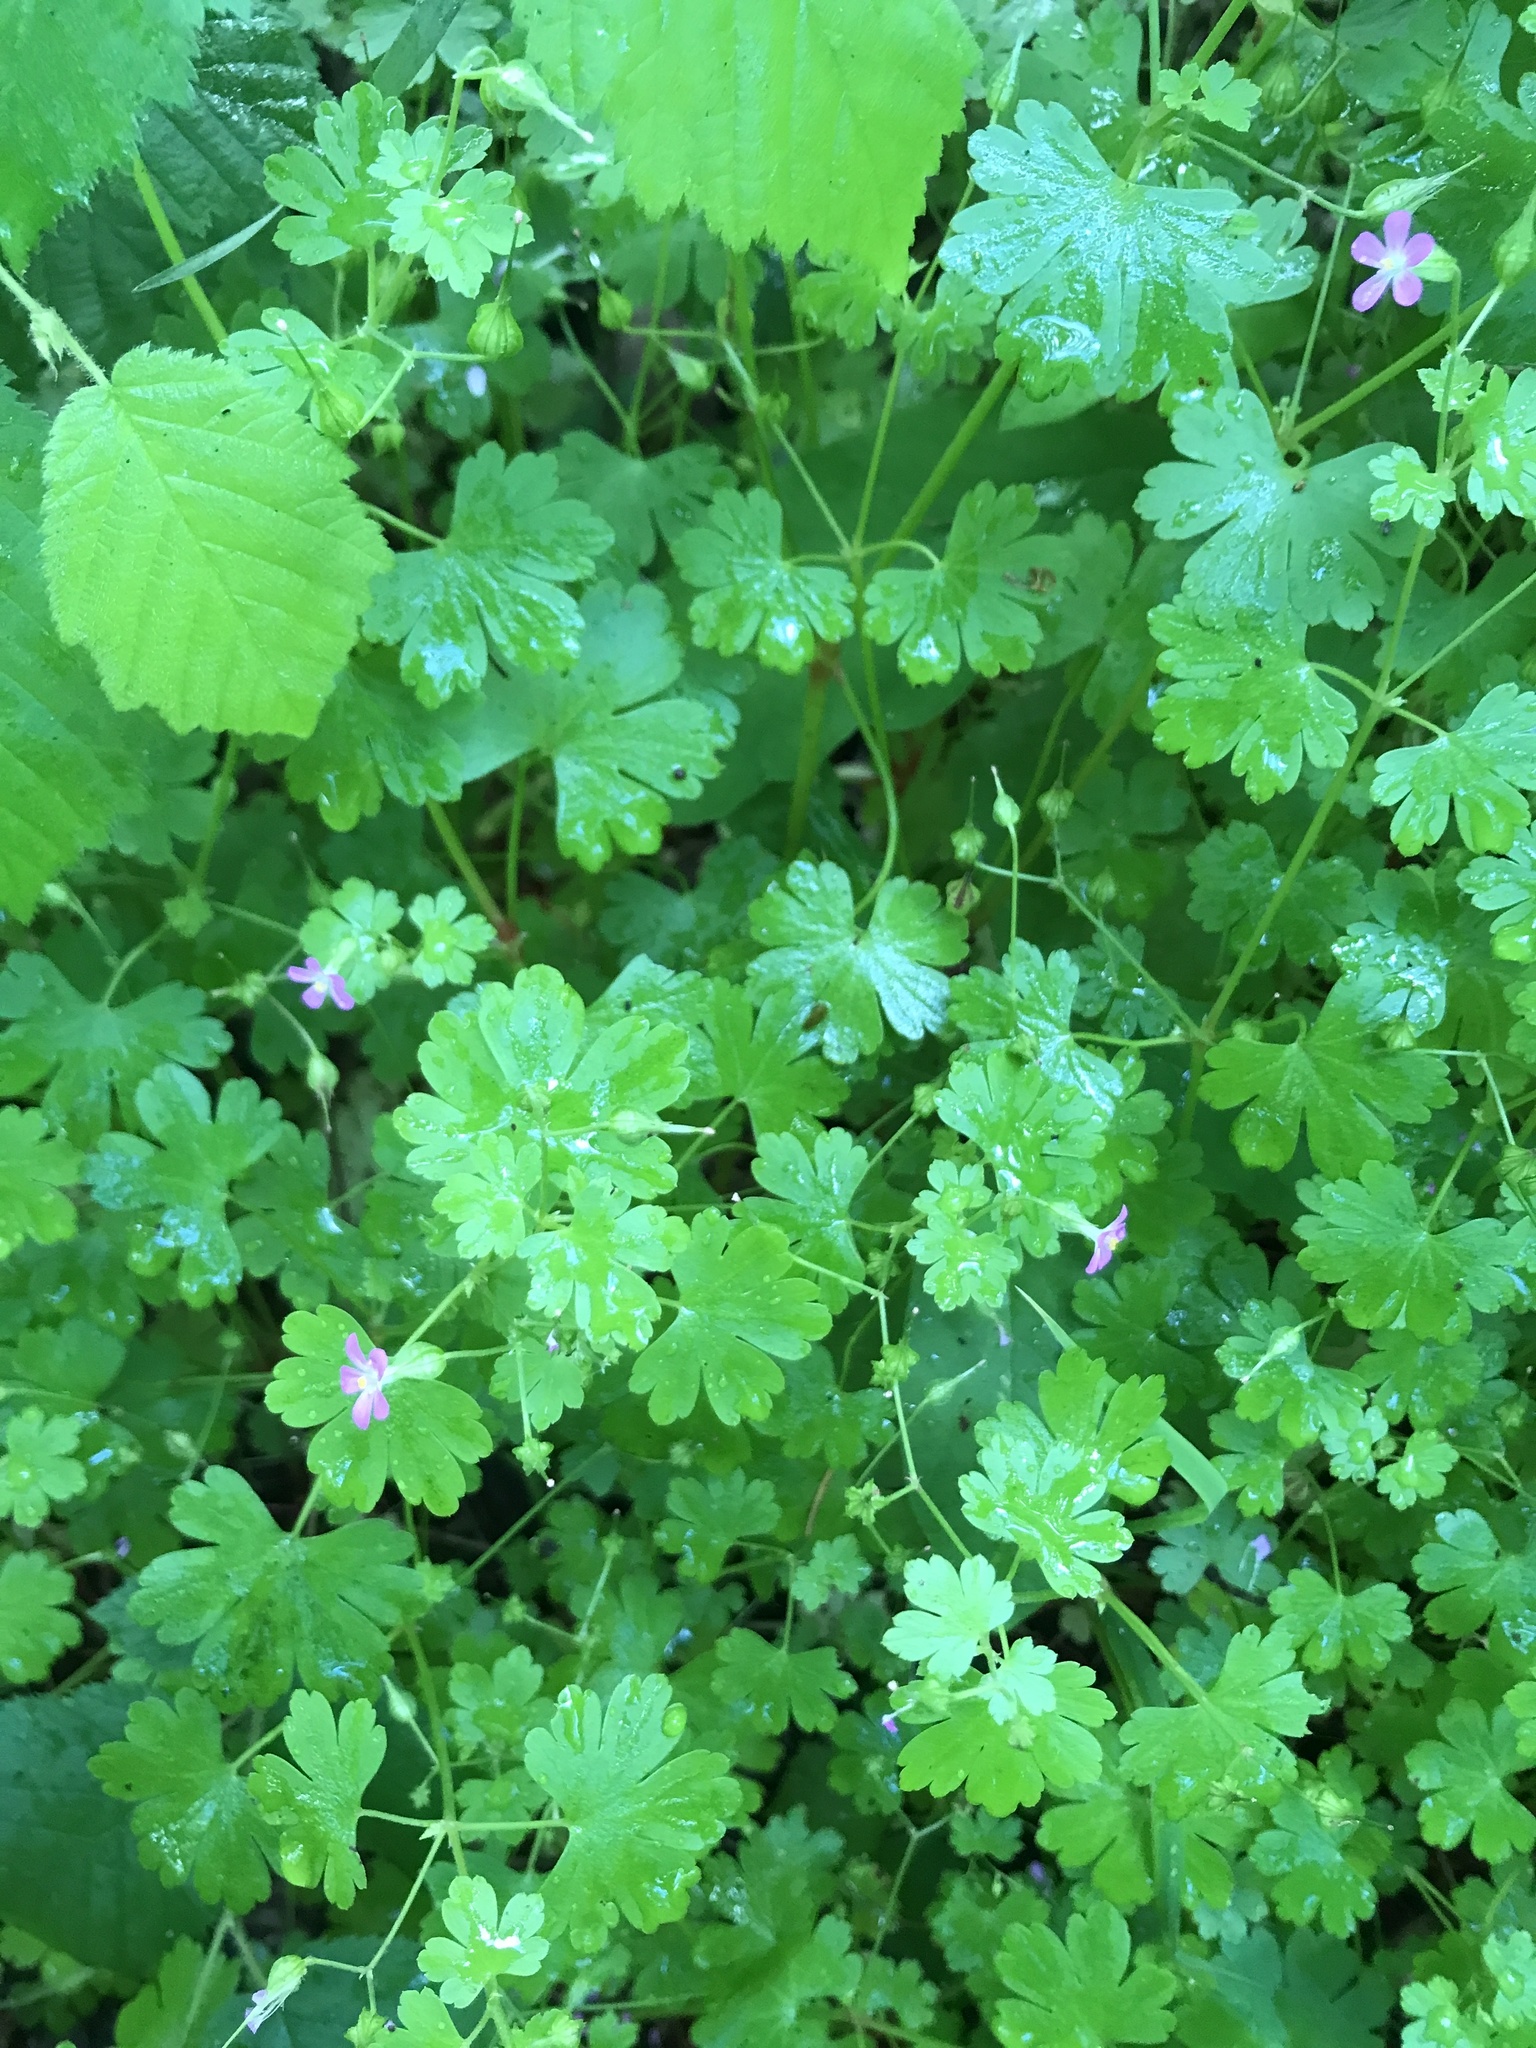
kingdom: Plantae
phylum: Tracheophyta
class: Magnoliopsida
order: Geraniales
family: Geraniaceae
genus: Geranium
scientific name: Geranium lucidum
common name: Shining crane's-bill
